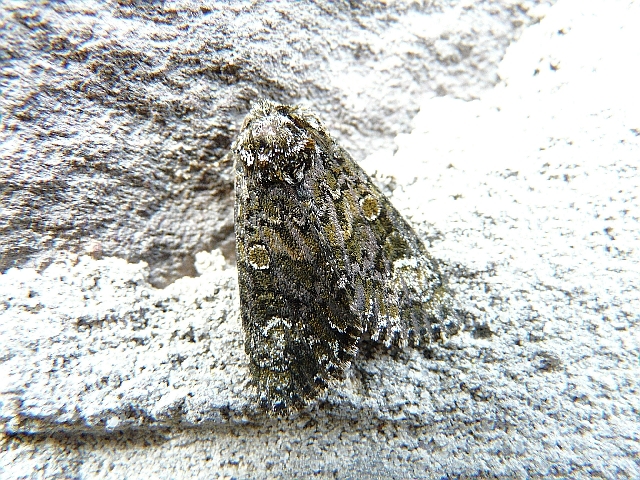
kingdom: Animalia
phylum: Arthropoda
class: Insecta
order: Lepidoptera
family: Noctuidae
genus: Craniophora
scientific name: Craniophora ligustri
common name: Coronet
